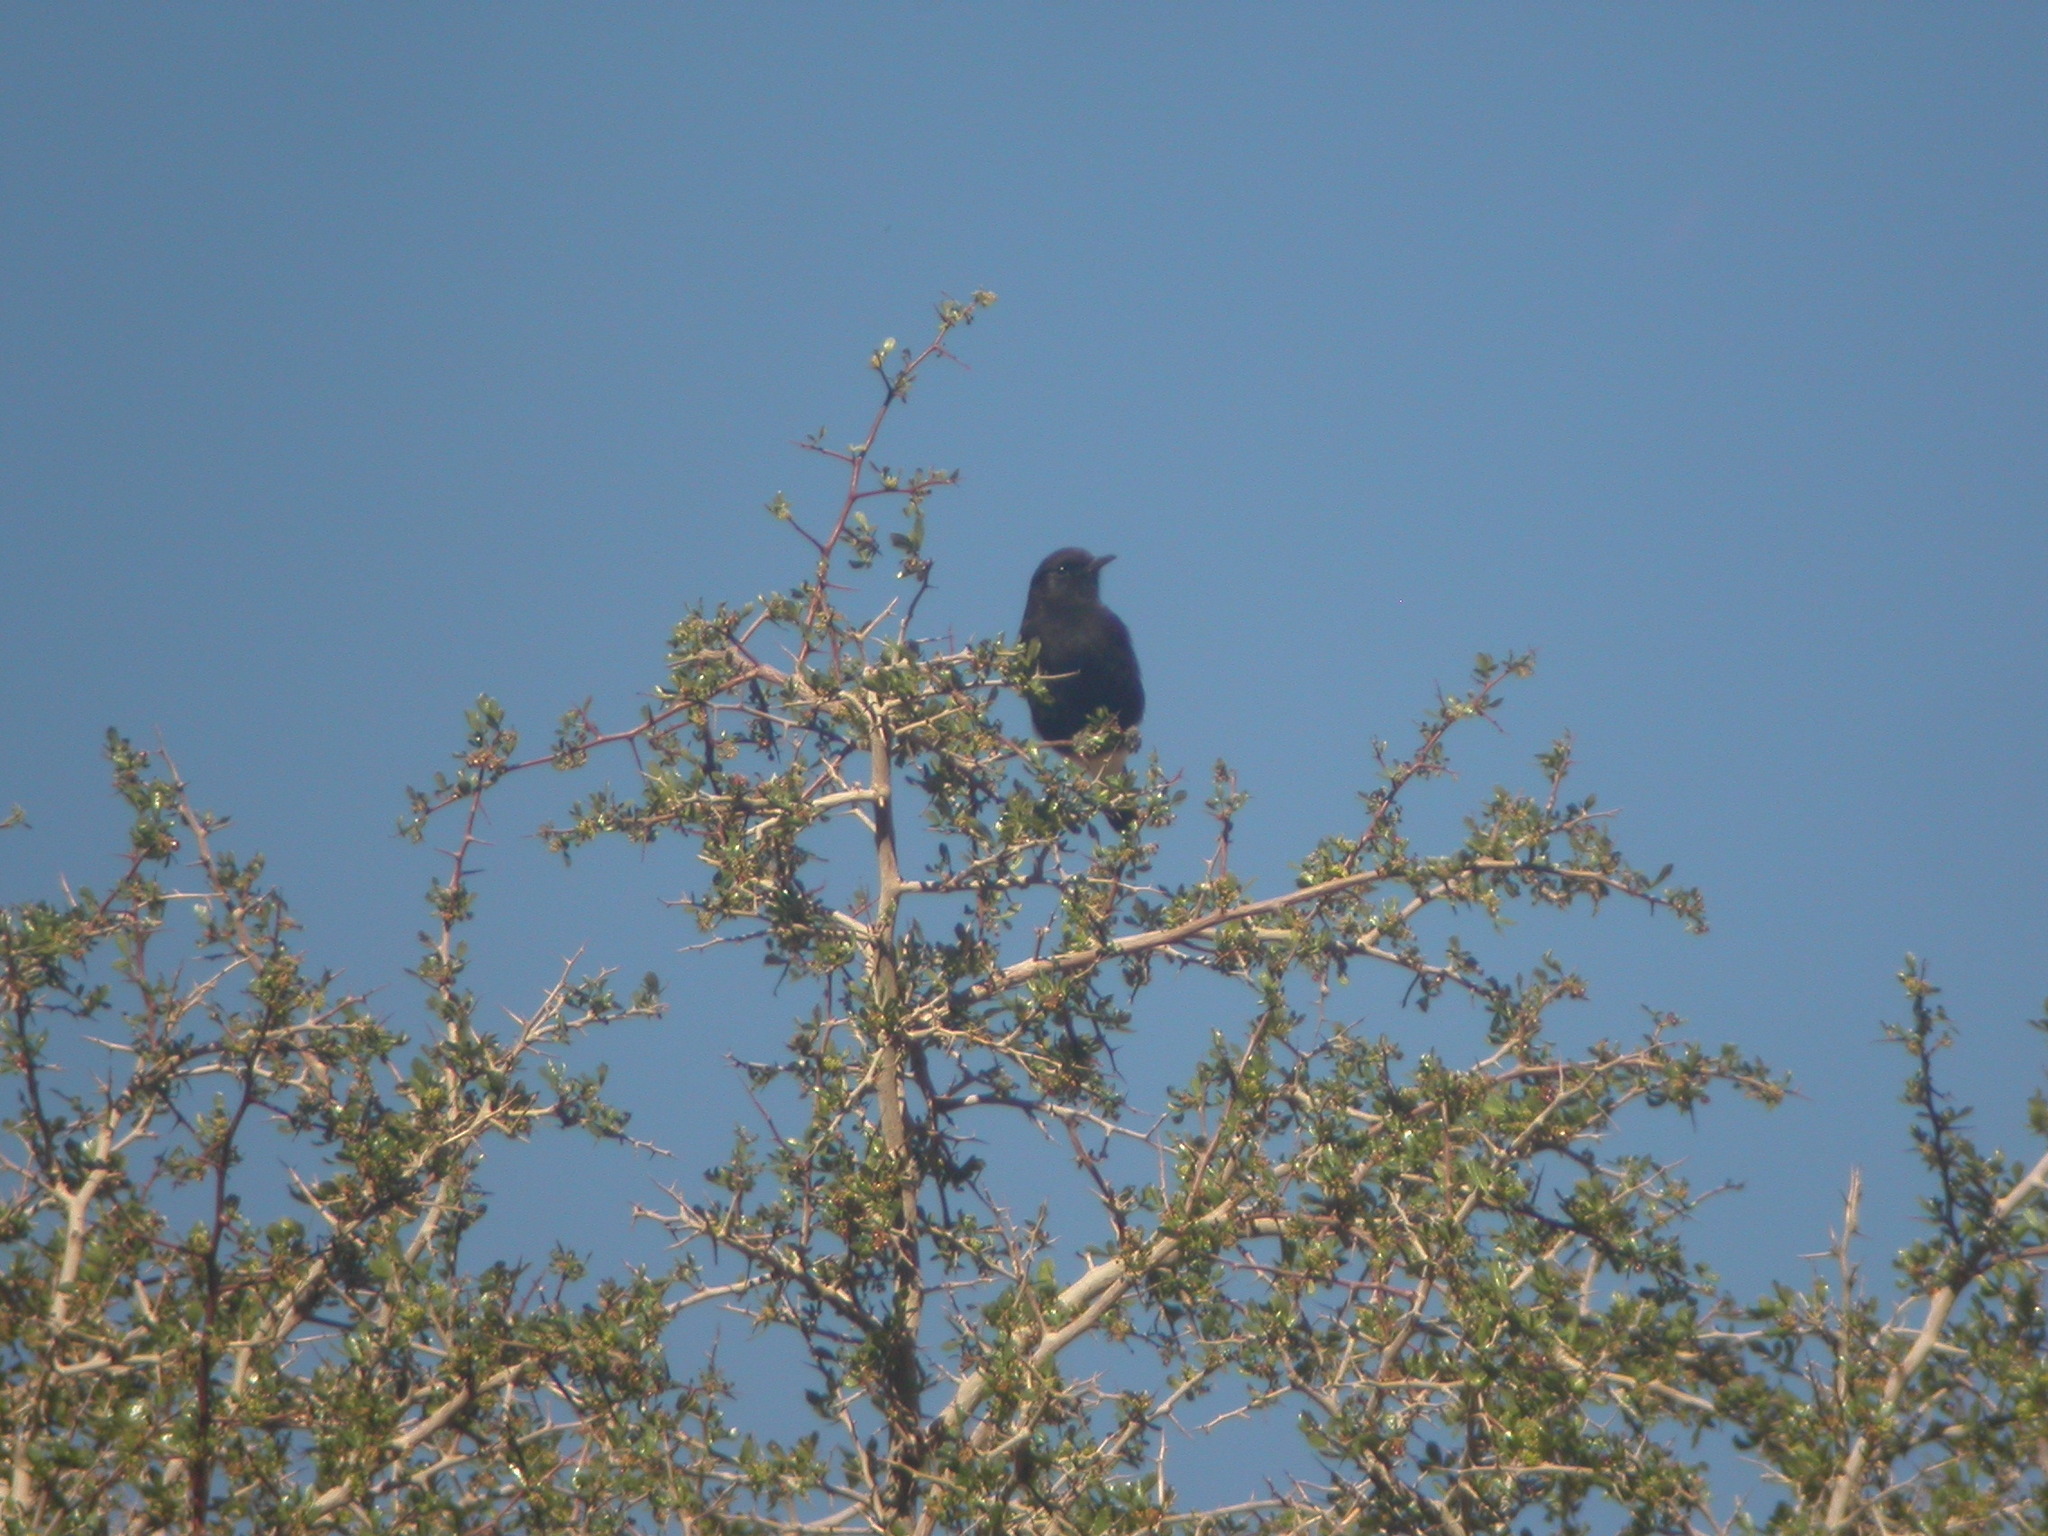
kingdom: Animalia
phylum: Chordata
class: Aves
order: Passeriformes
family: Muscicapidae
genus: Oenanthe
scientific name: Oenanthe leucura
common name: Black wheatear
